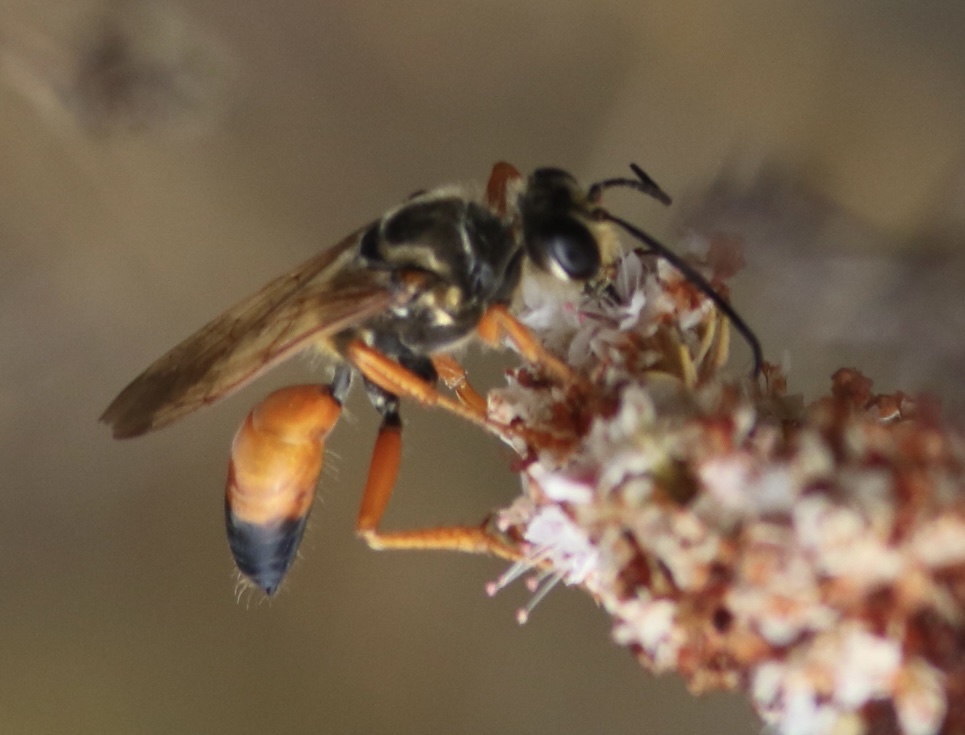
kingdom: Animalia
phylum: Arthropoda
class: Insecta
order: Hymenoptera
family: Sphecidae
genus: Sphex
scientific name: Sphex ichneumoneus
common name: Great golden digger wasp
